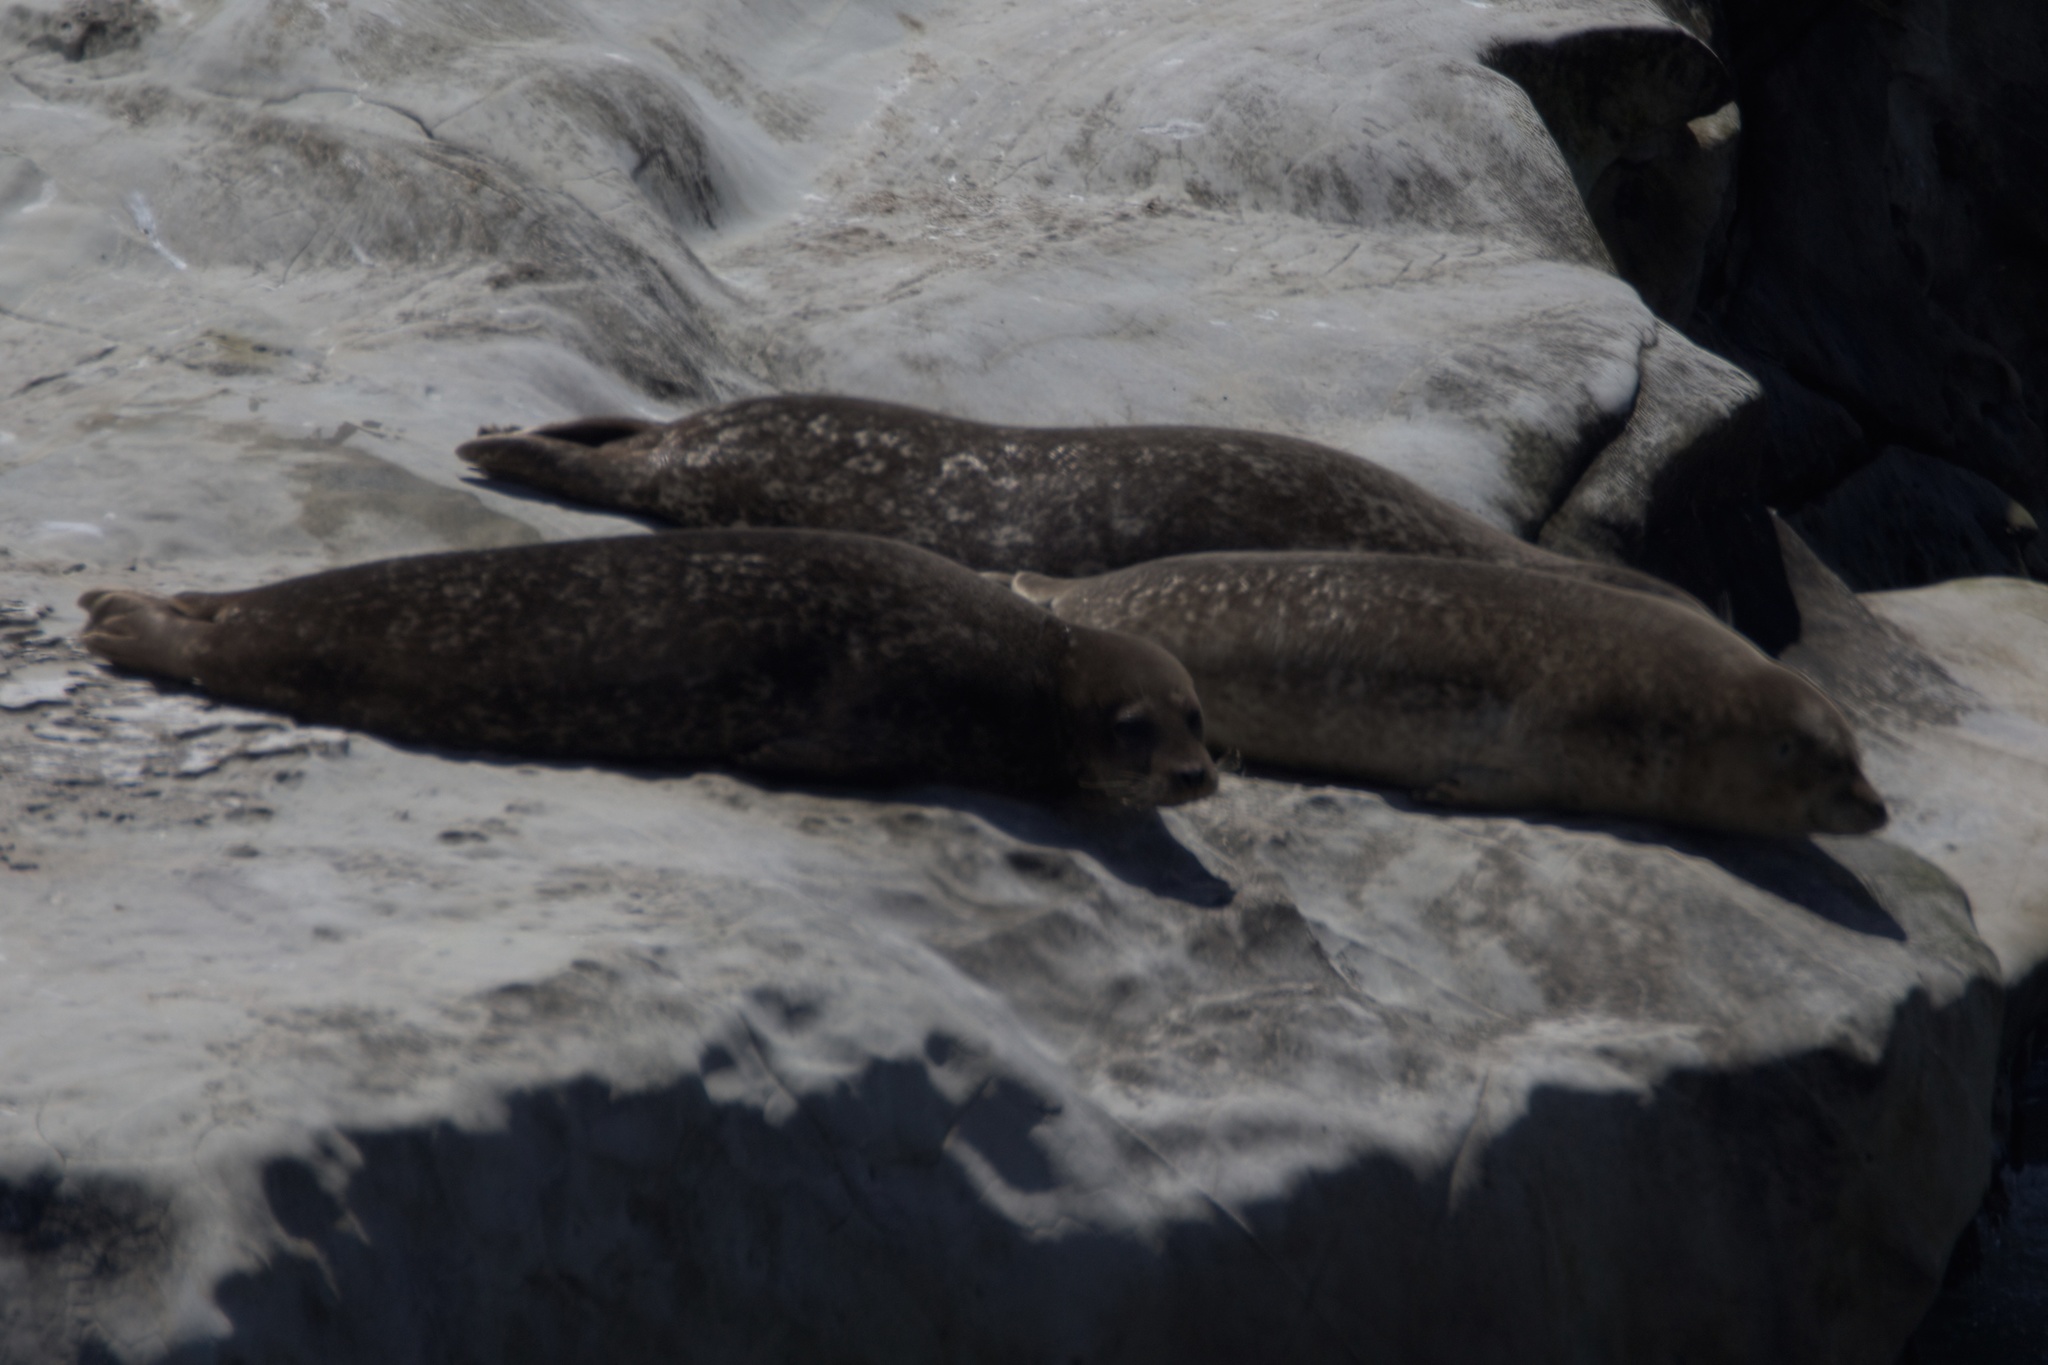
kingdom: Animalia
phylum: Chordata
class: Mammalia
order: Carnivora
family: Phocidae
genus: Phoca
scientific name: Phoca vitulina
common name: Harbor seal
